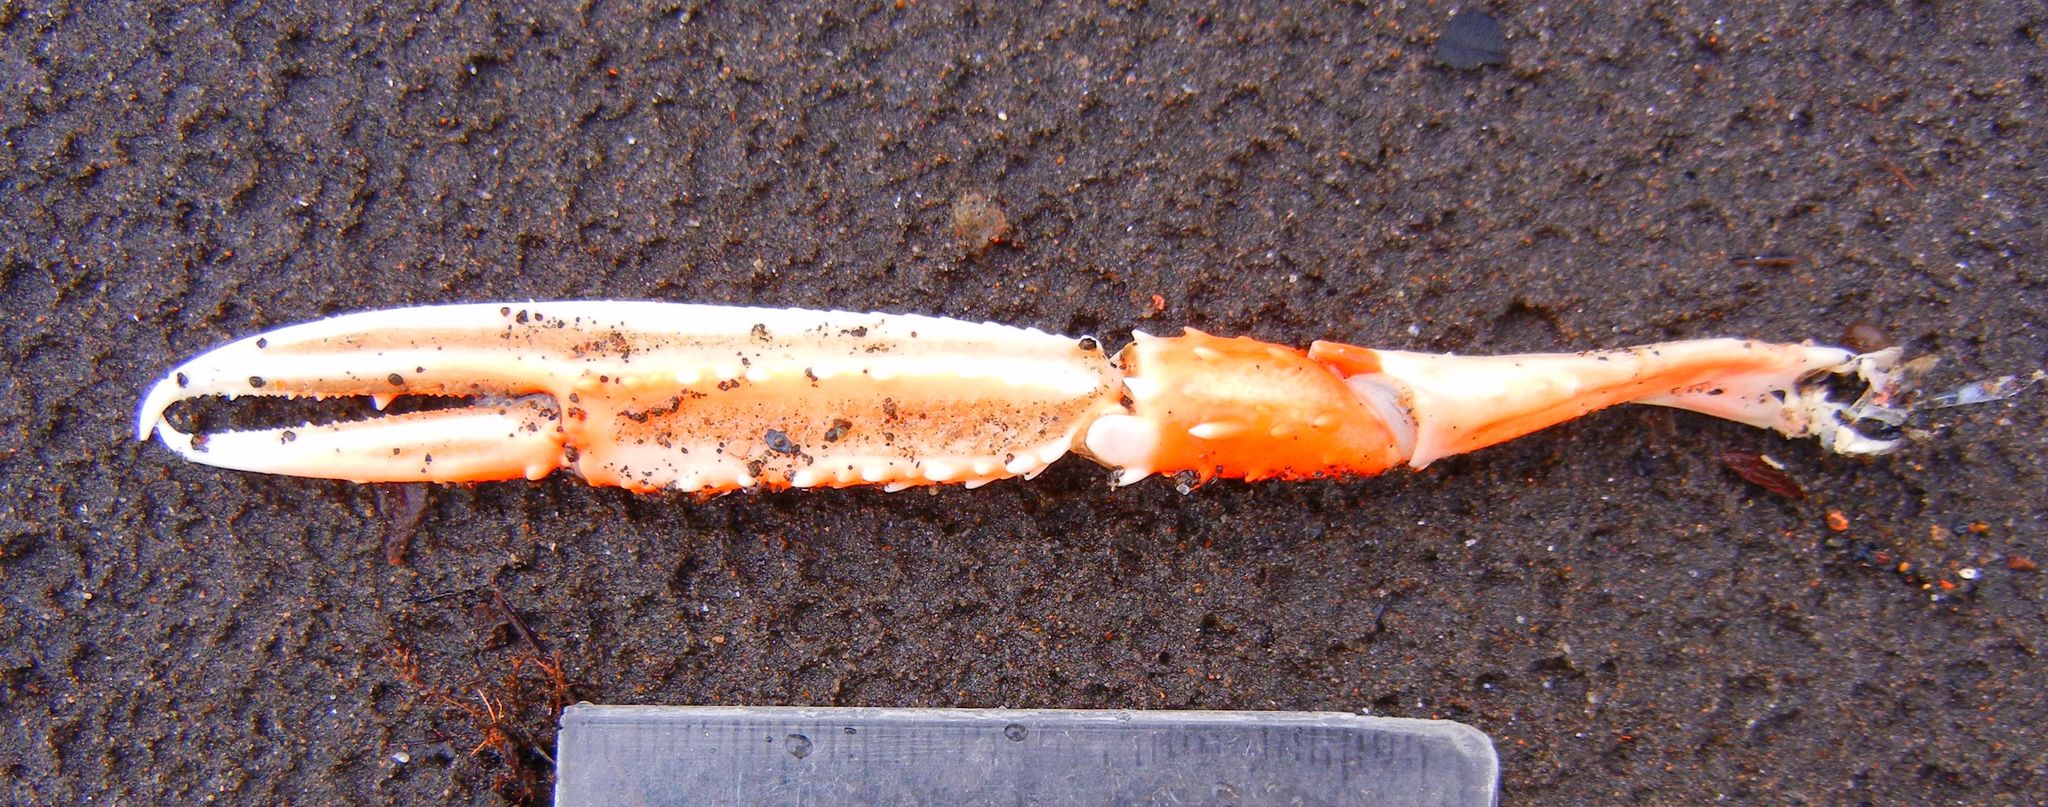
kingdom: Animalia
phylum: Arthropoda
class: Malacostraca
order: Decapoda
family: Nephropidae
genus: Nephrops
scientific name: Nephrops norvegicus
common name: Norway lobster
